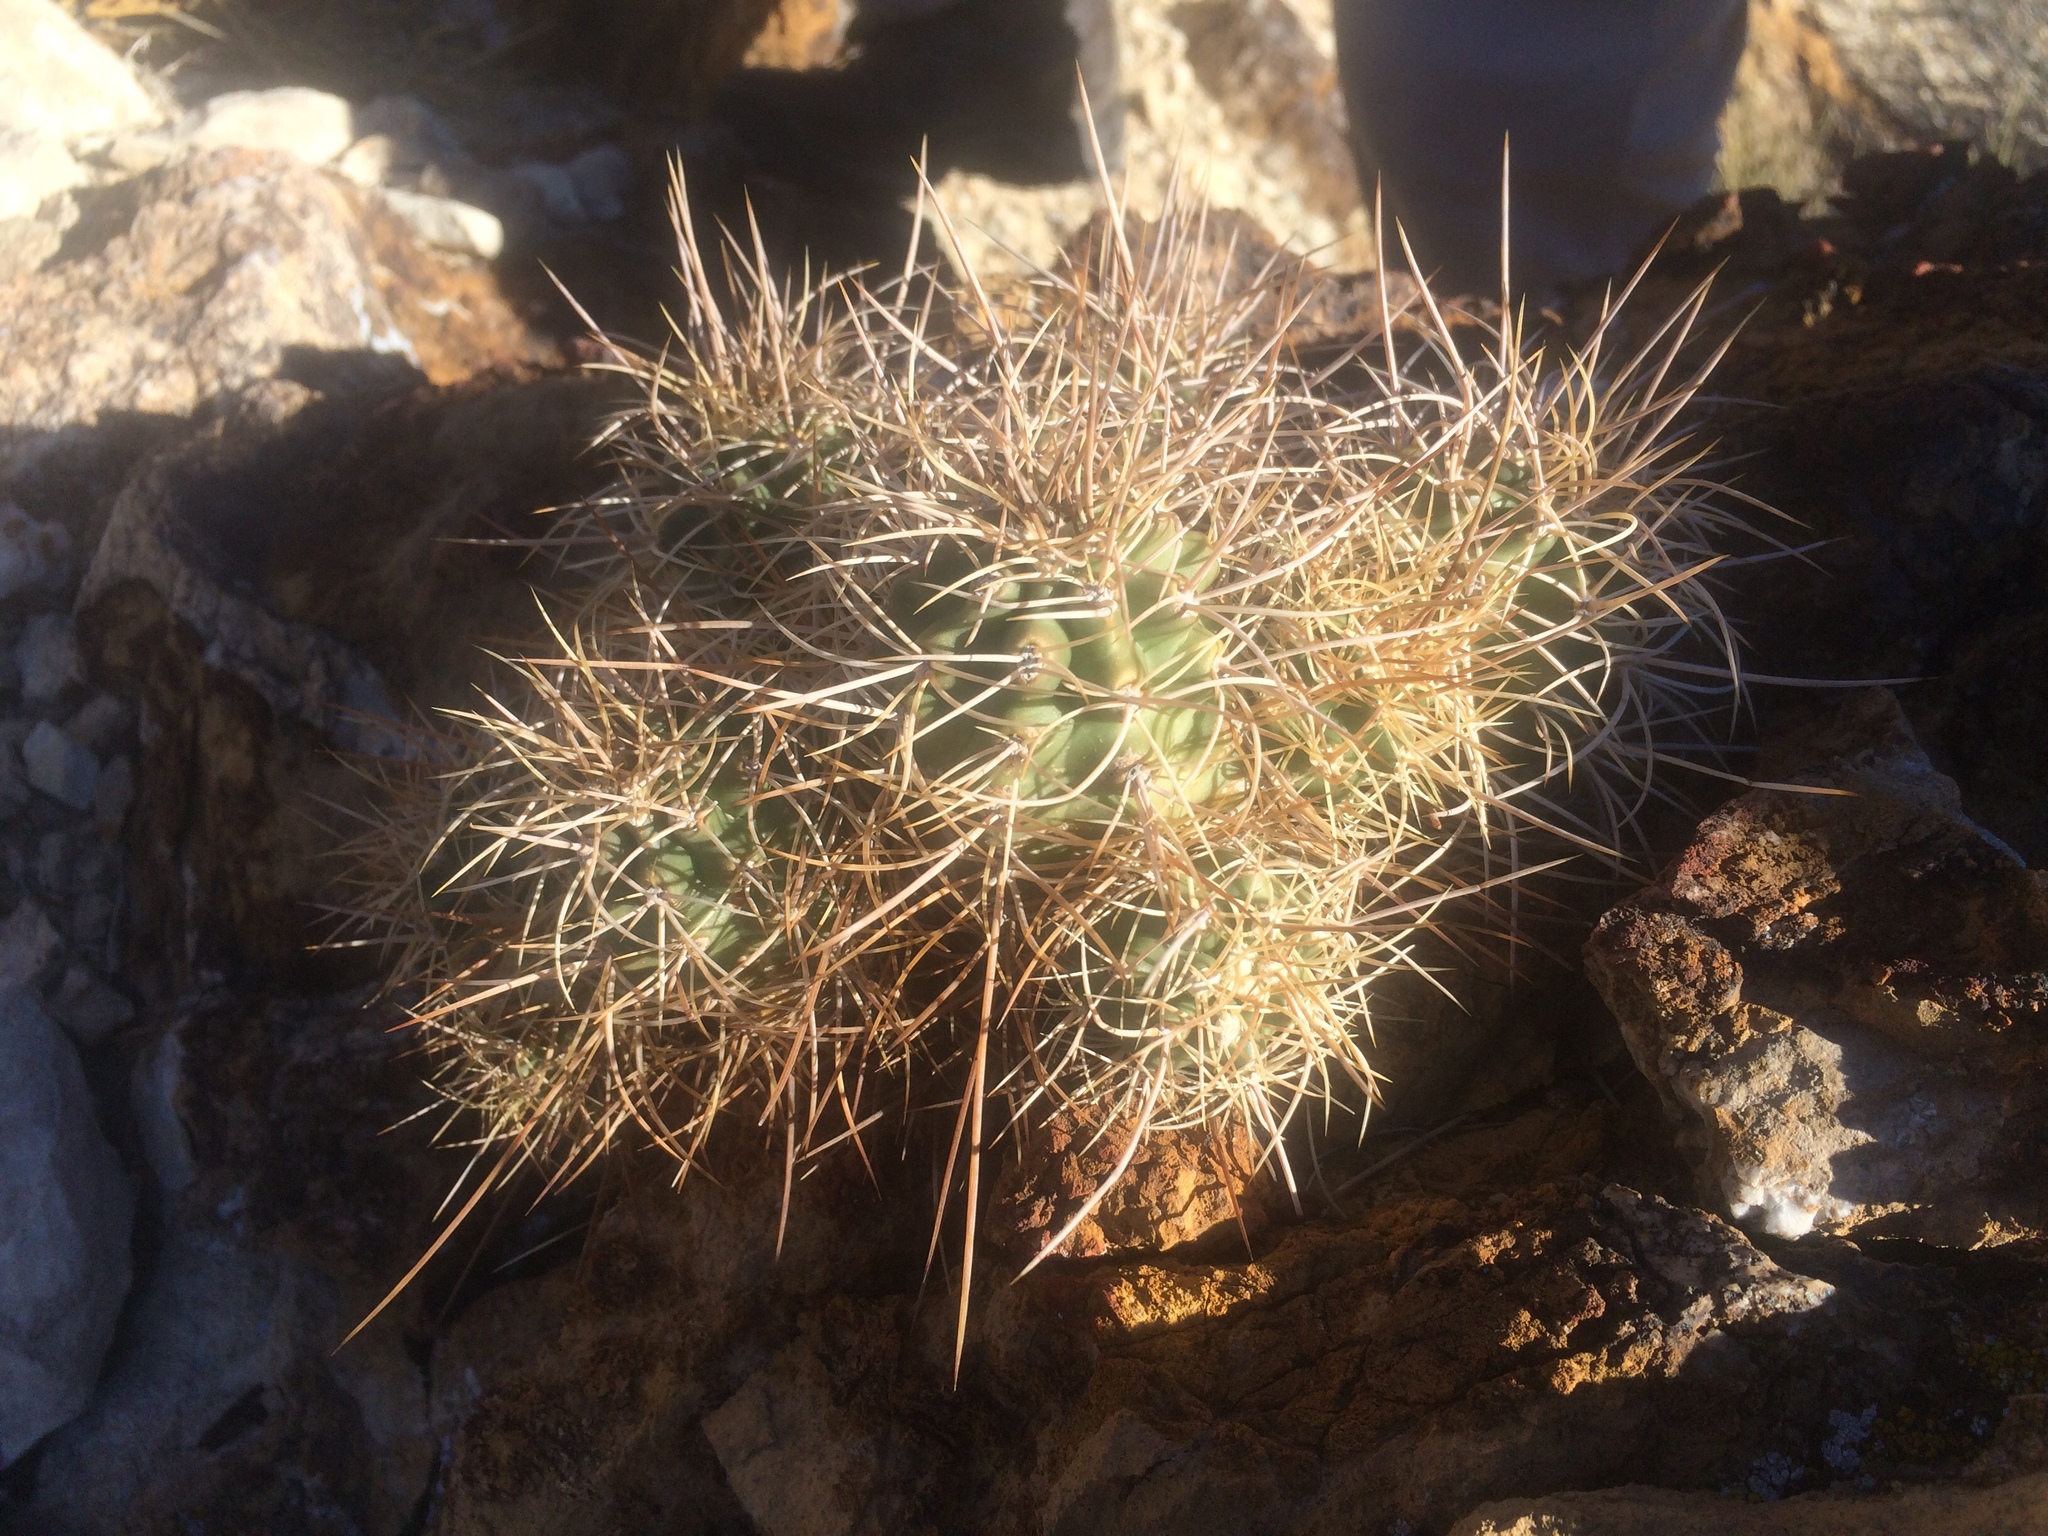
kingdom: Plantae
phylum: Tracheophyta
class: Magnoliopsida
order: Caryophyllales
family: Cactaceae
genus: Echinocereus
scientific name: Echinocereus triglochidiatus
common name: Claretcup hedgehog
